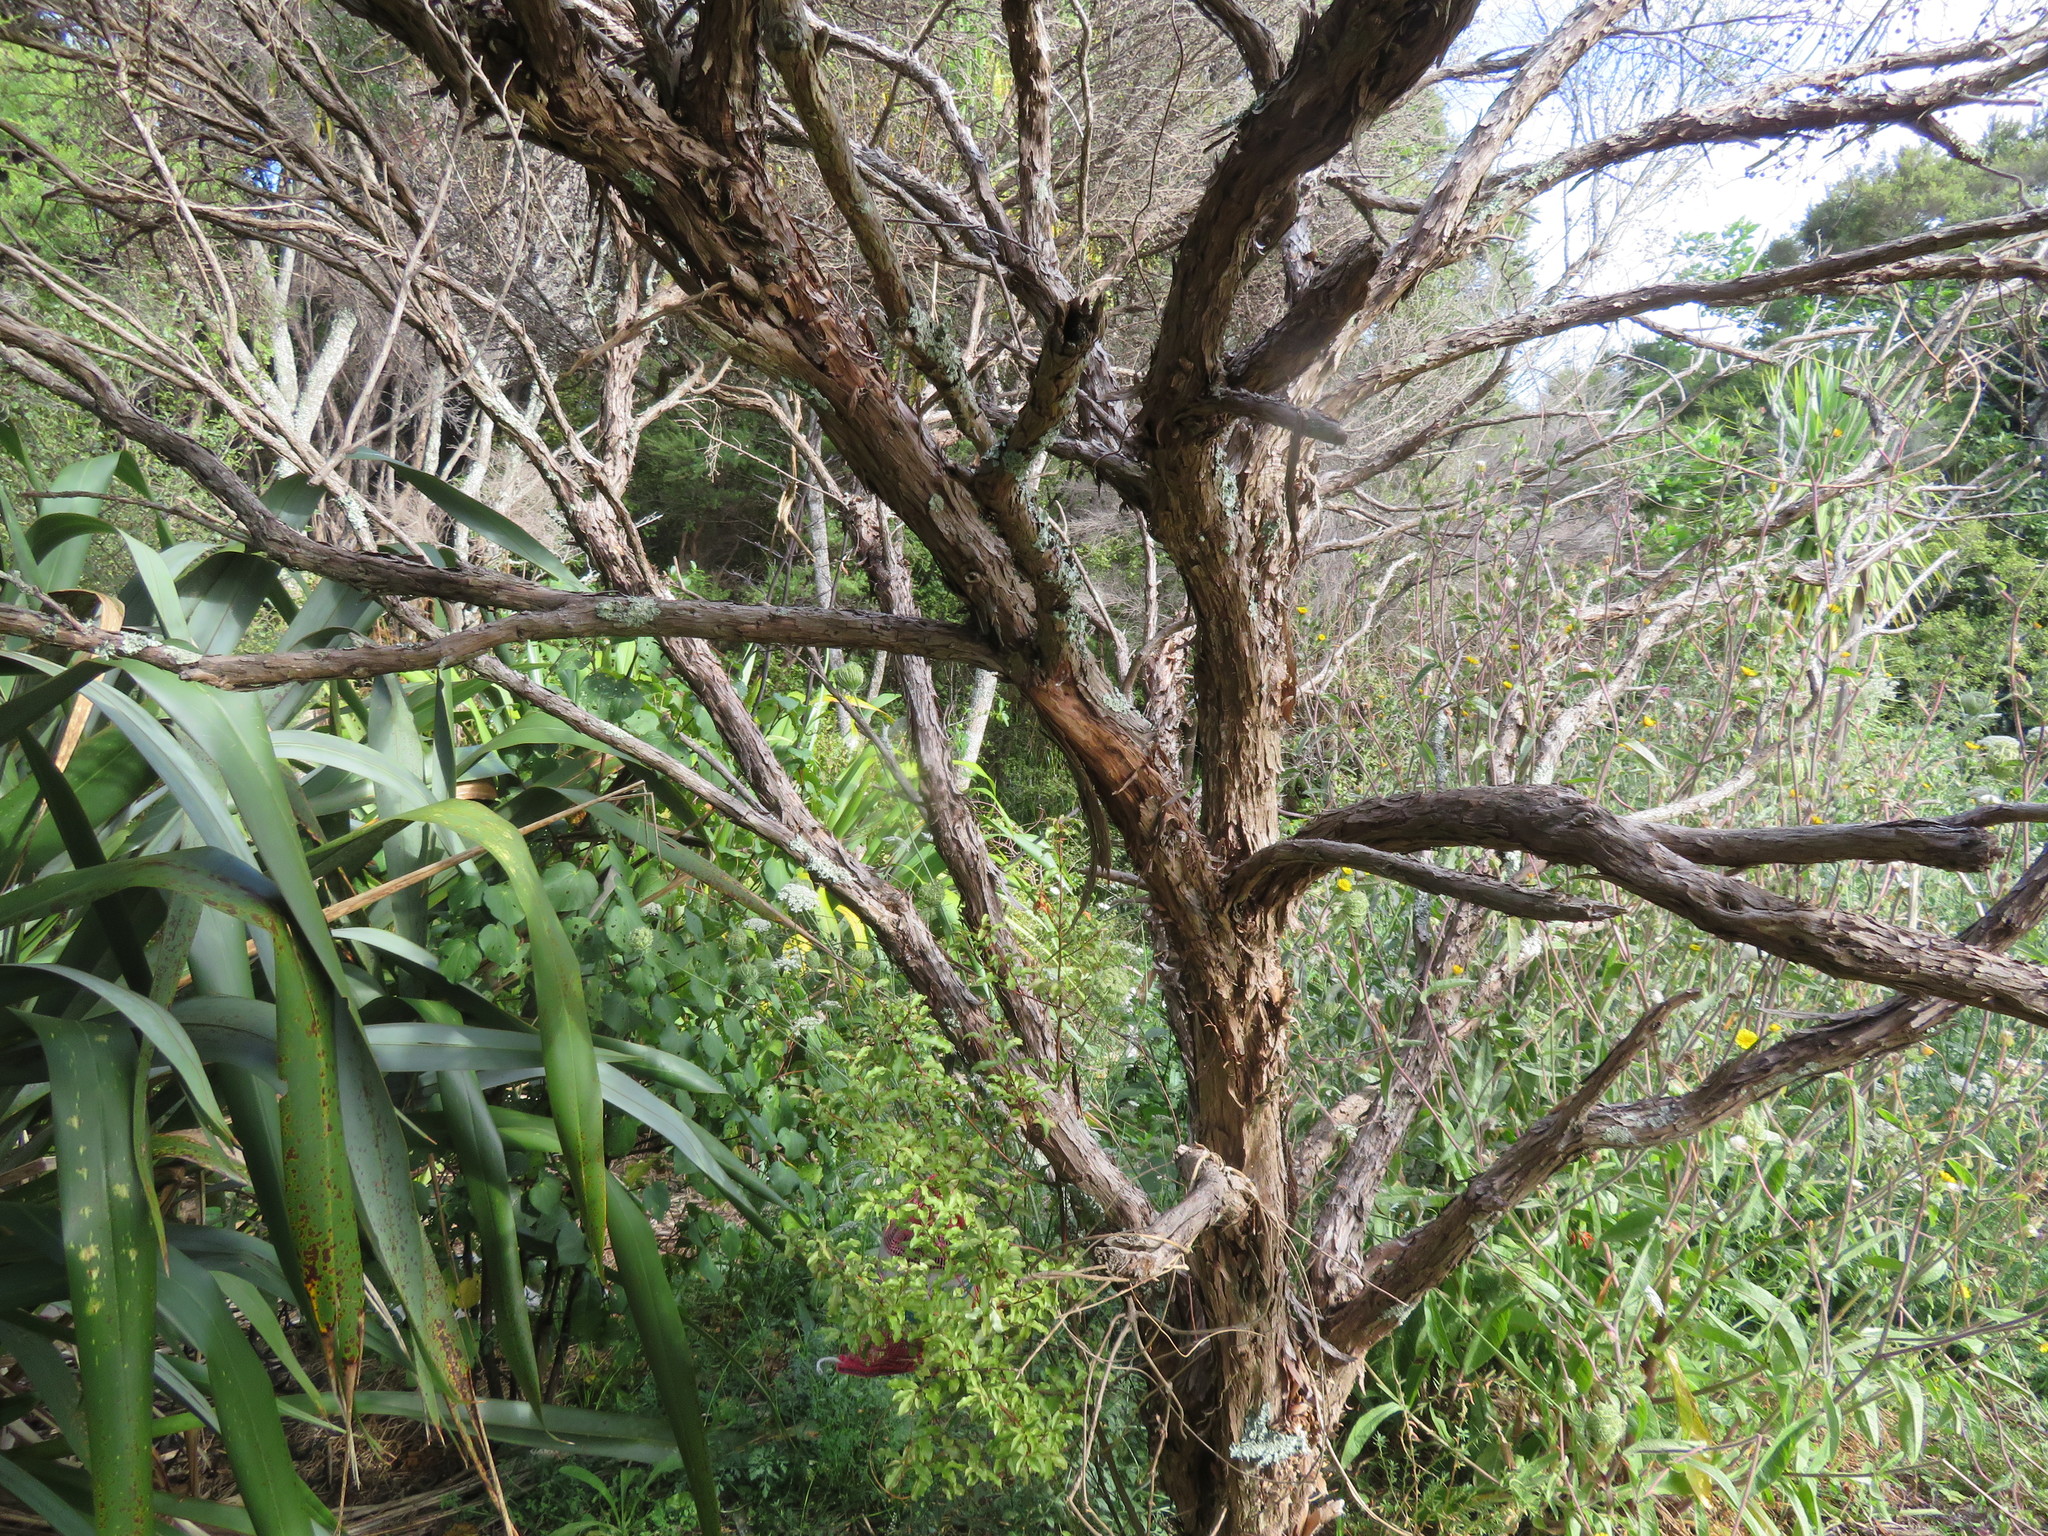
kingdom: Plantae
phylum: Tracheophyta
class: Magnoliopsida
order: Piperales
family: Piperaceae
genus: Macropiper
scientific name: Macropiper excelsum
